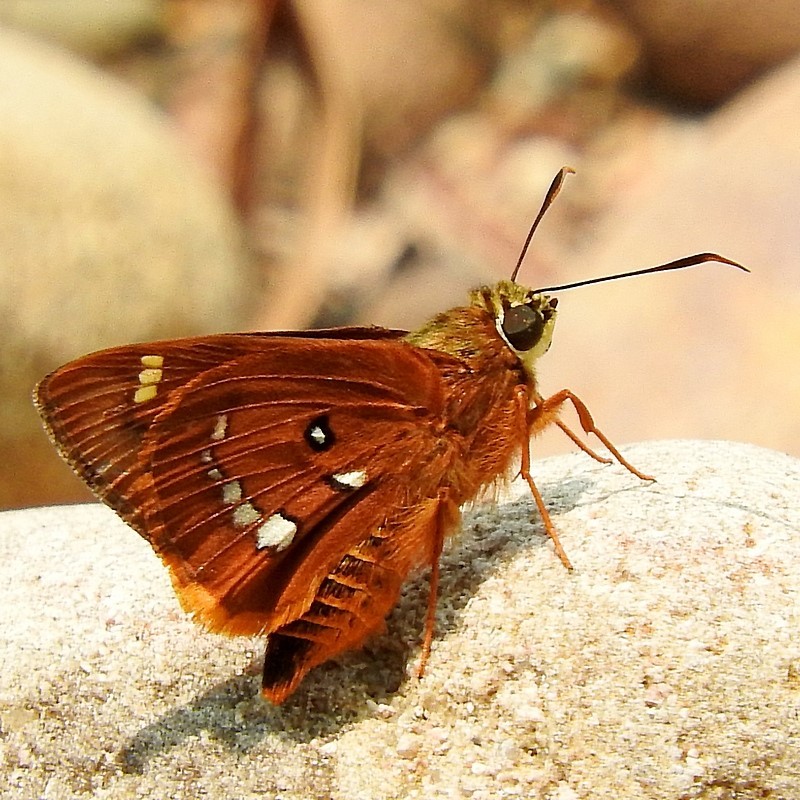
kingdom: Animalia
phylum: Arthropoda
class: Insecta
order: Lepidoptera
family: Hesperiidae
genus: Trapezites
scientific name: Trapezites symmomus
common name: Splendid ochre
